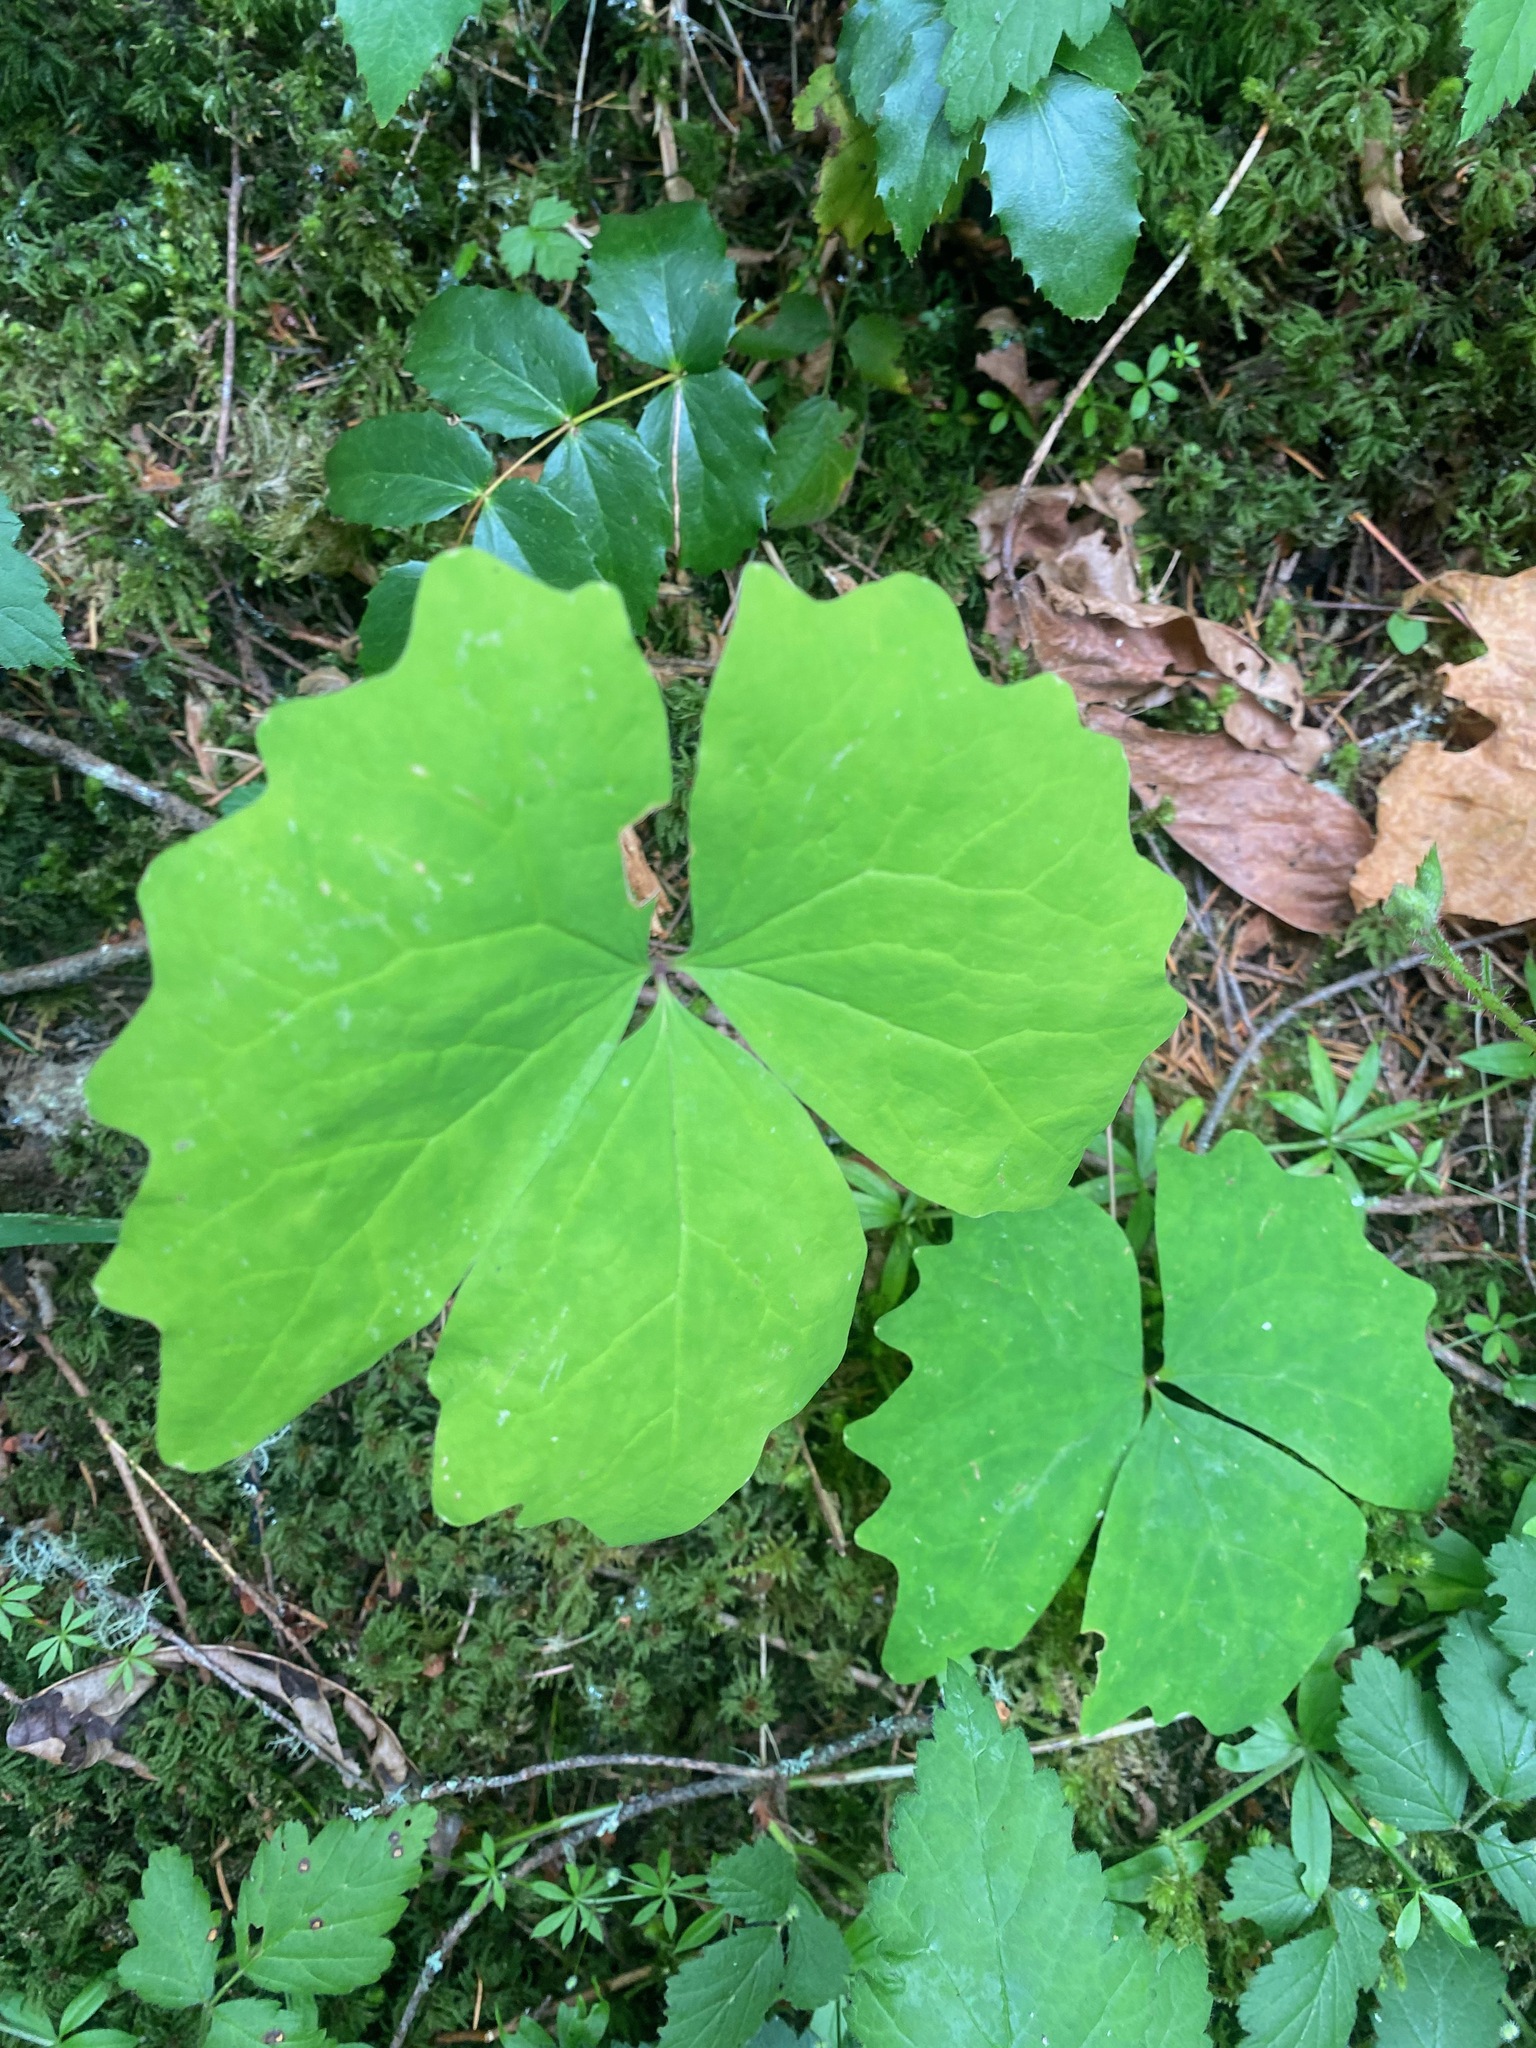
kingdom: Plantae
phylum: Tracheophyta
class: Magnoliopsida
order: Ranunculales
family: Berberidaceae
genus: Achlys
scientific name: Achlys triphylla
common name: Vanilla-leaf
